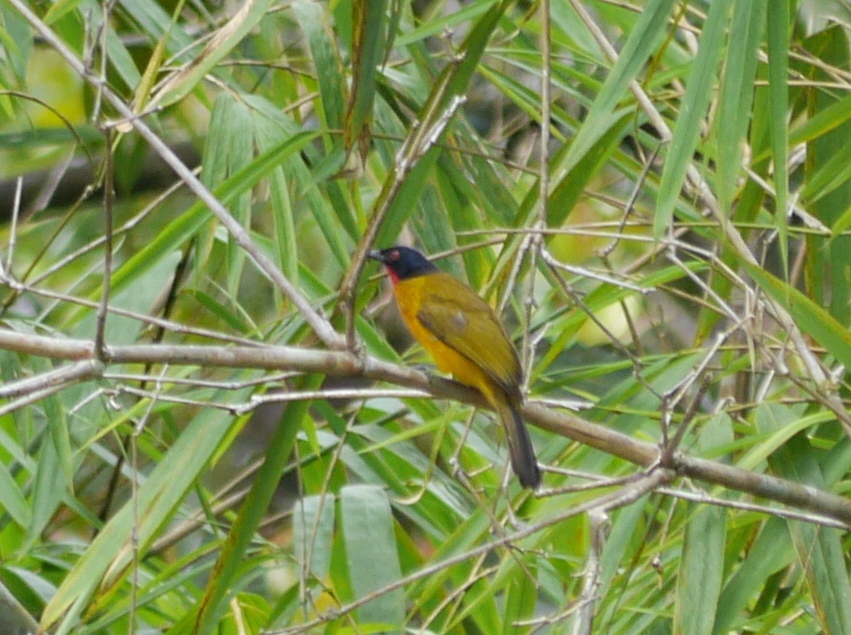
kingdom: Animalia
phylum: Chordata
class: Aves
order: Passeriformes
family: Pycnonotidae
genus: Pycnonotus
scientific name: Pycnonotus dispar
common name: Ruby-throated bulbul
